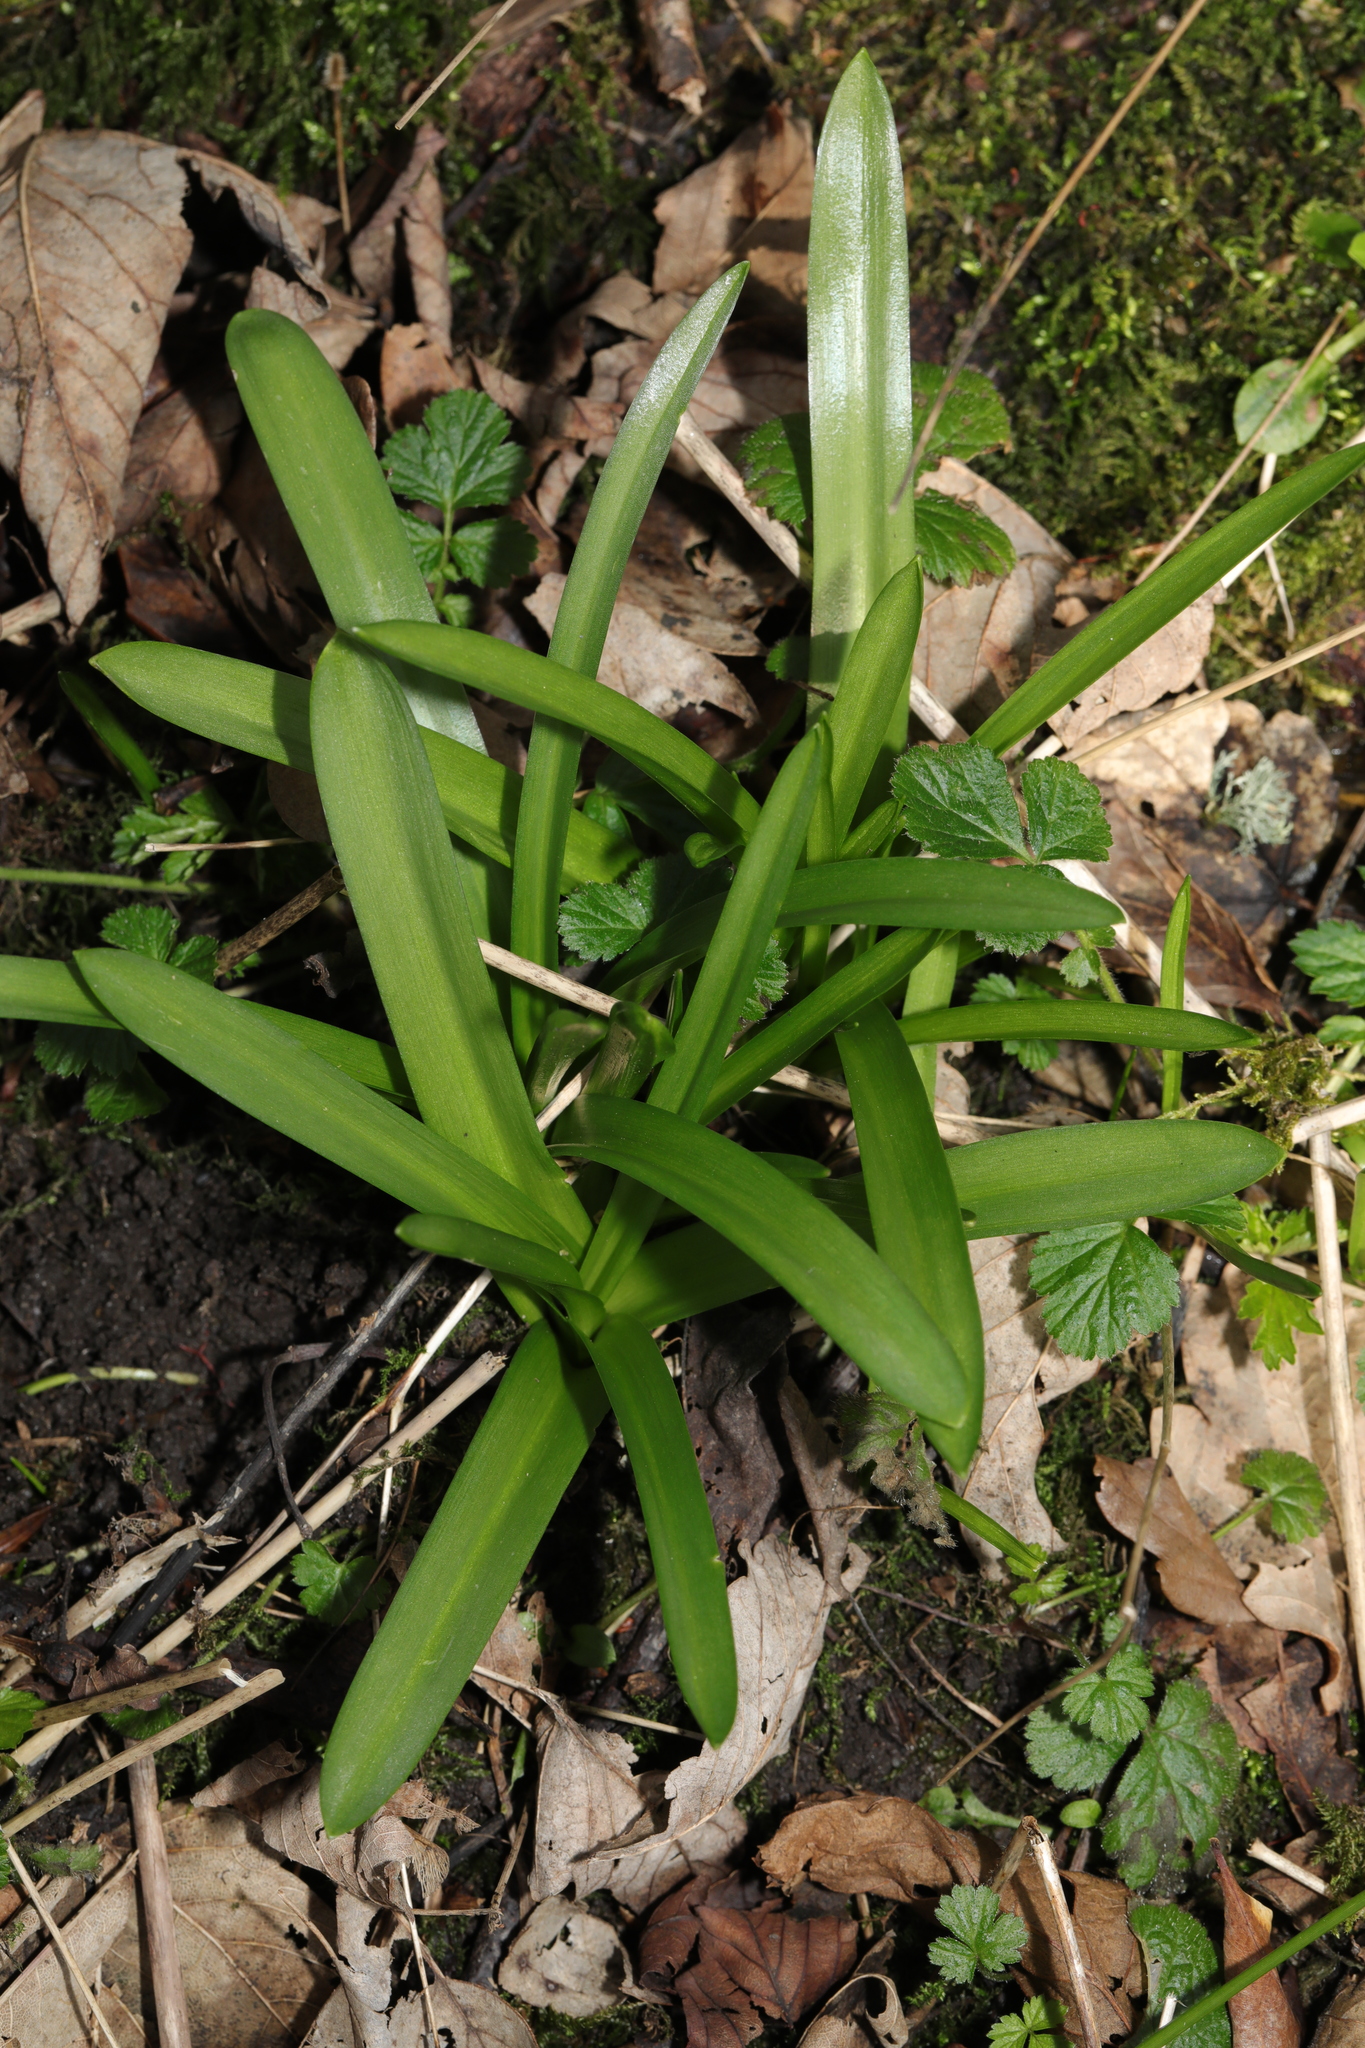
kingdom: Plantae
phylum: Tracheophyta
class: Liliopsida
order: Asparagales
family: Asparagaceae
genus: Hyacinthoides
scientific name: Hyacinthoides massartiana
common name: Hyacinthoides
